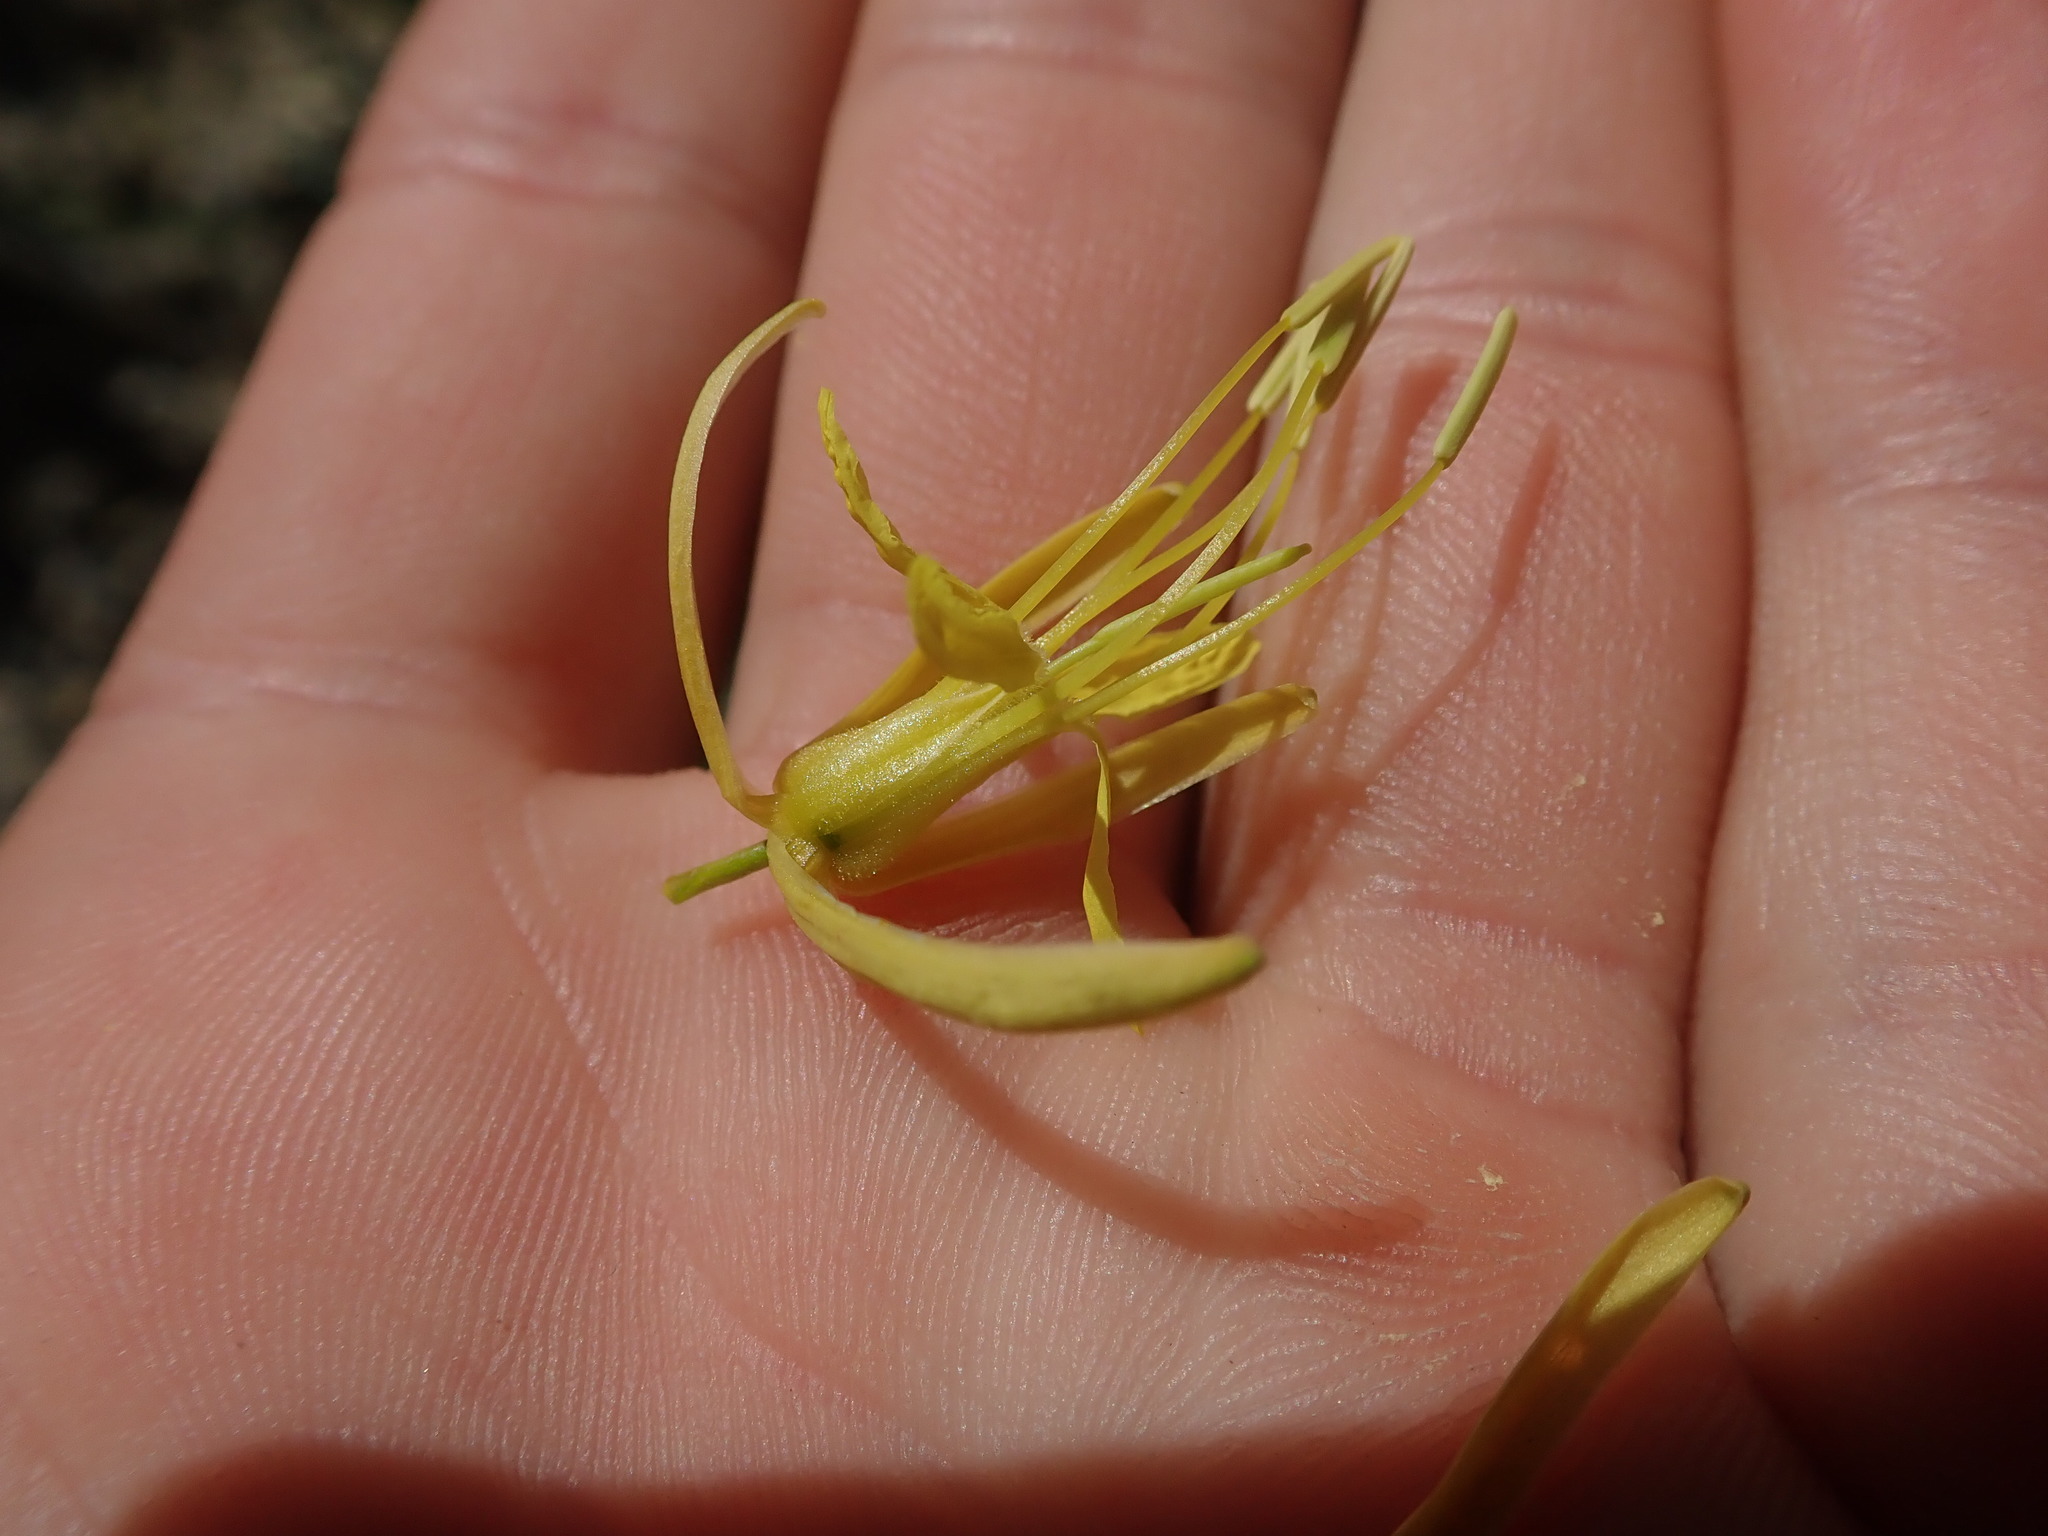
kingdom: Plantae
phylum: Tracheophyta
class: Magnoliopsida
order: Brassicales
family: Brassicaceae
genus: Stanleya
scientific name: Stanleya pinnata
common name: Prince's-plume
